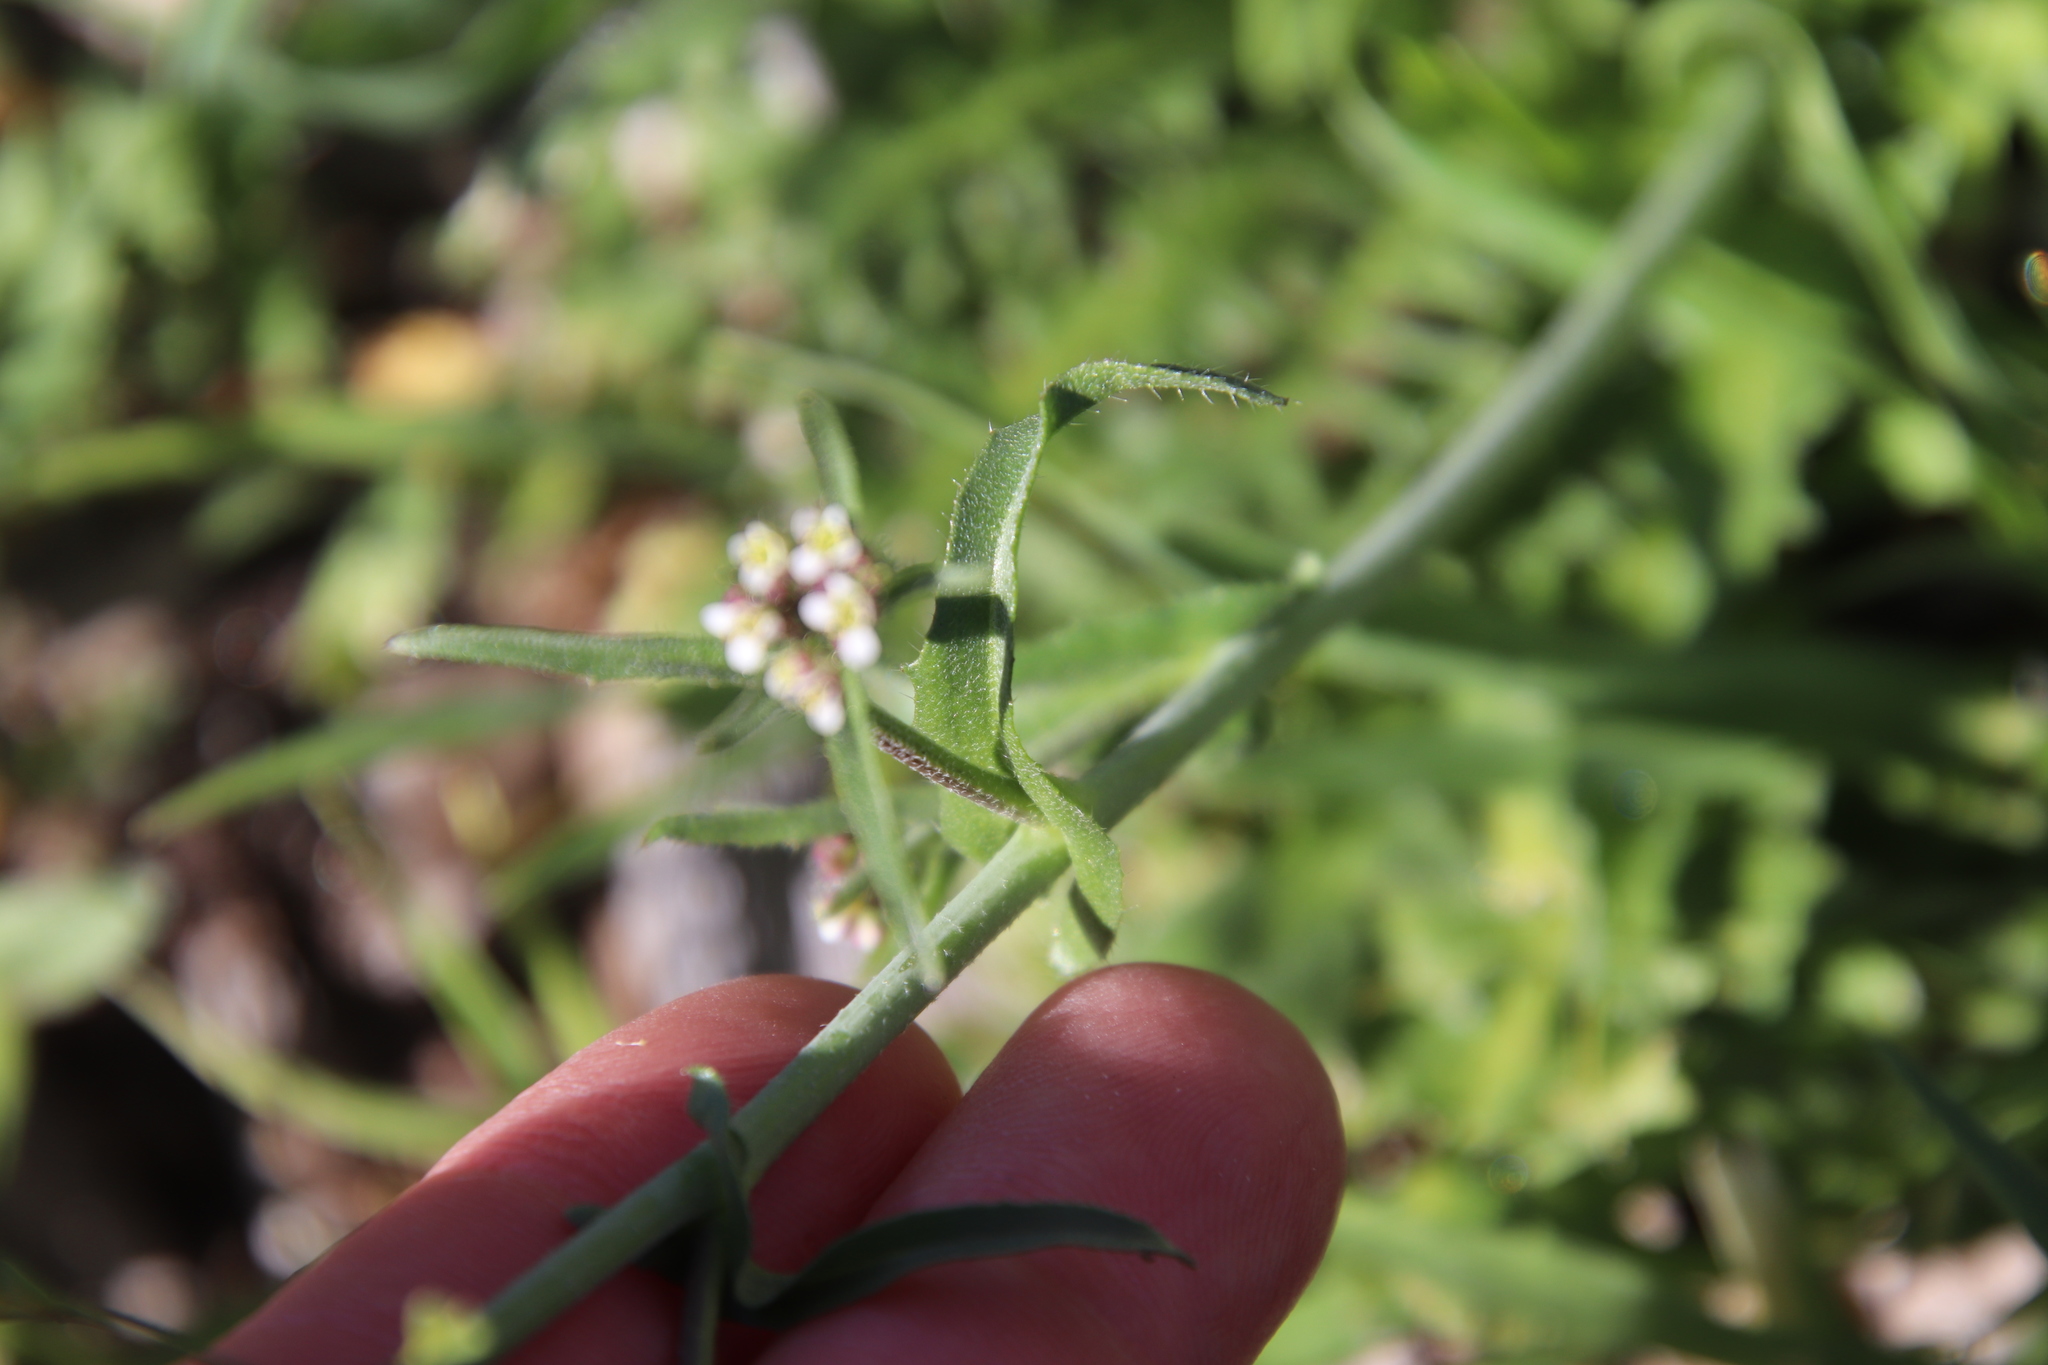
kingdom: Plantae
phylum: Tracheophyta
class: Magnoliopsida
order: Brassicales
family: Brassicaceae
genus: Capsella
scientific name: Capsella bursa-pastoris
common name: Shepherd's purse
